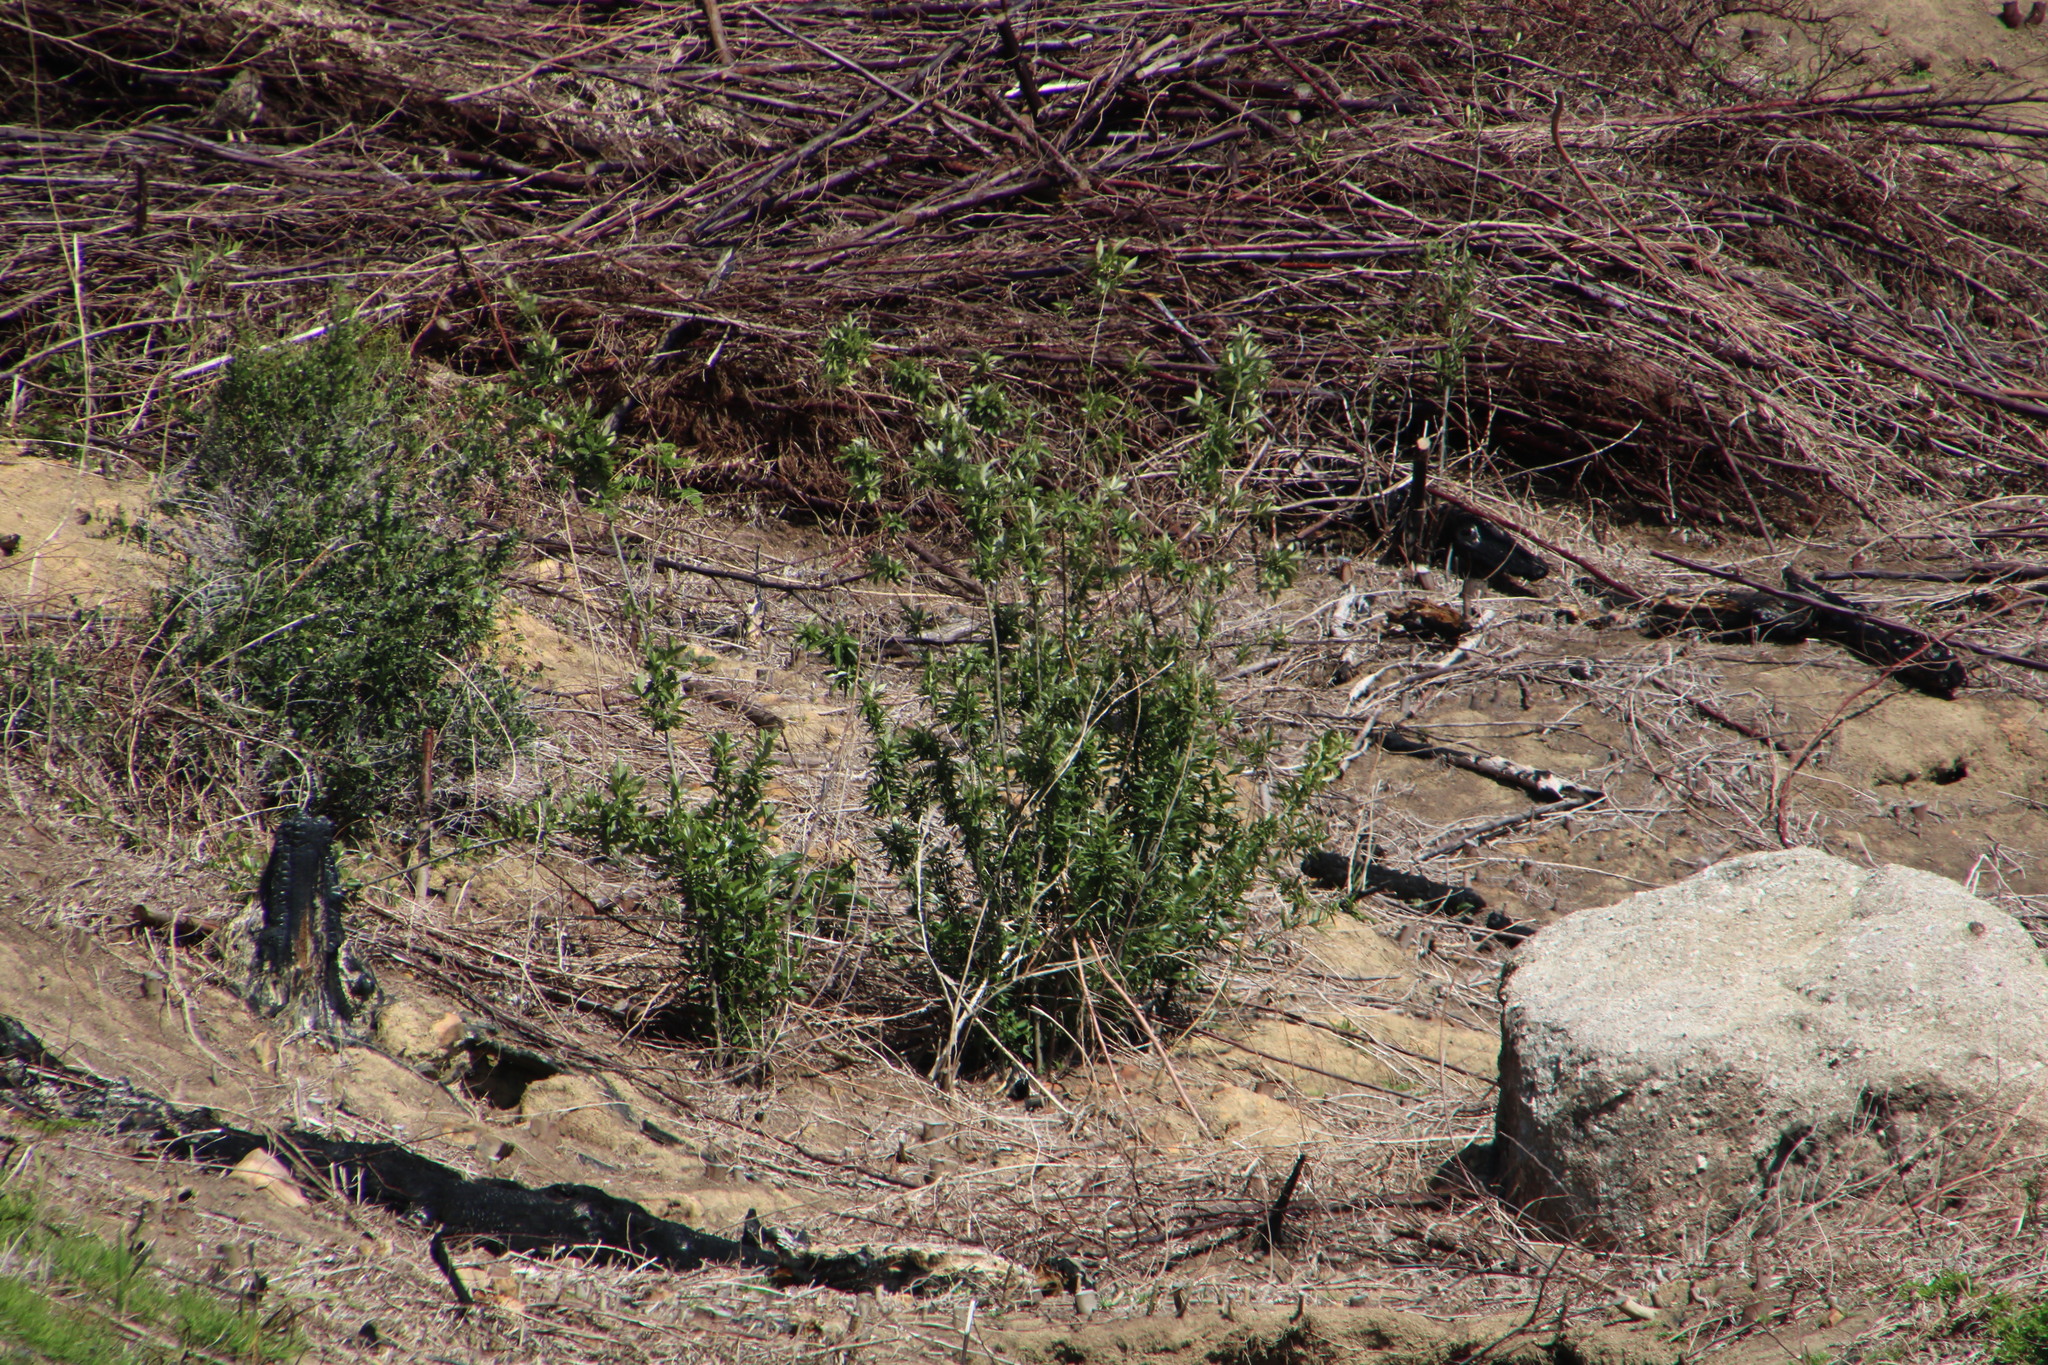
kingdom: Plantae
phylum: Tracheophyta
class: Magnoliopsida
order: Malpighiales
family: Achariaceae
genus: Kiggelaria
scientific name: Kiggelaria africana
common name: Wild peach
